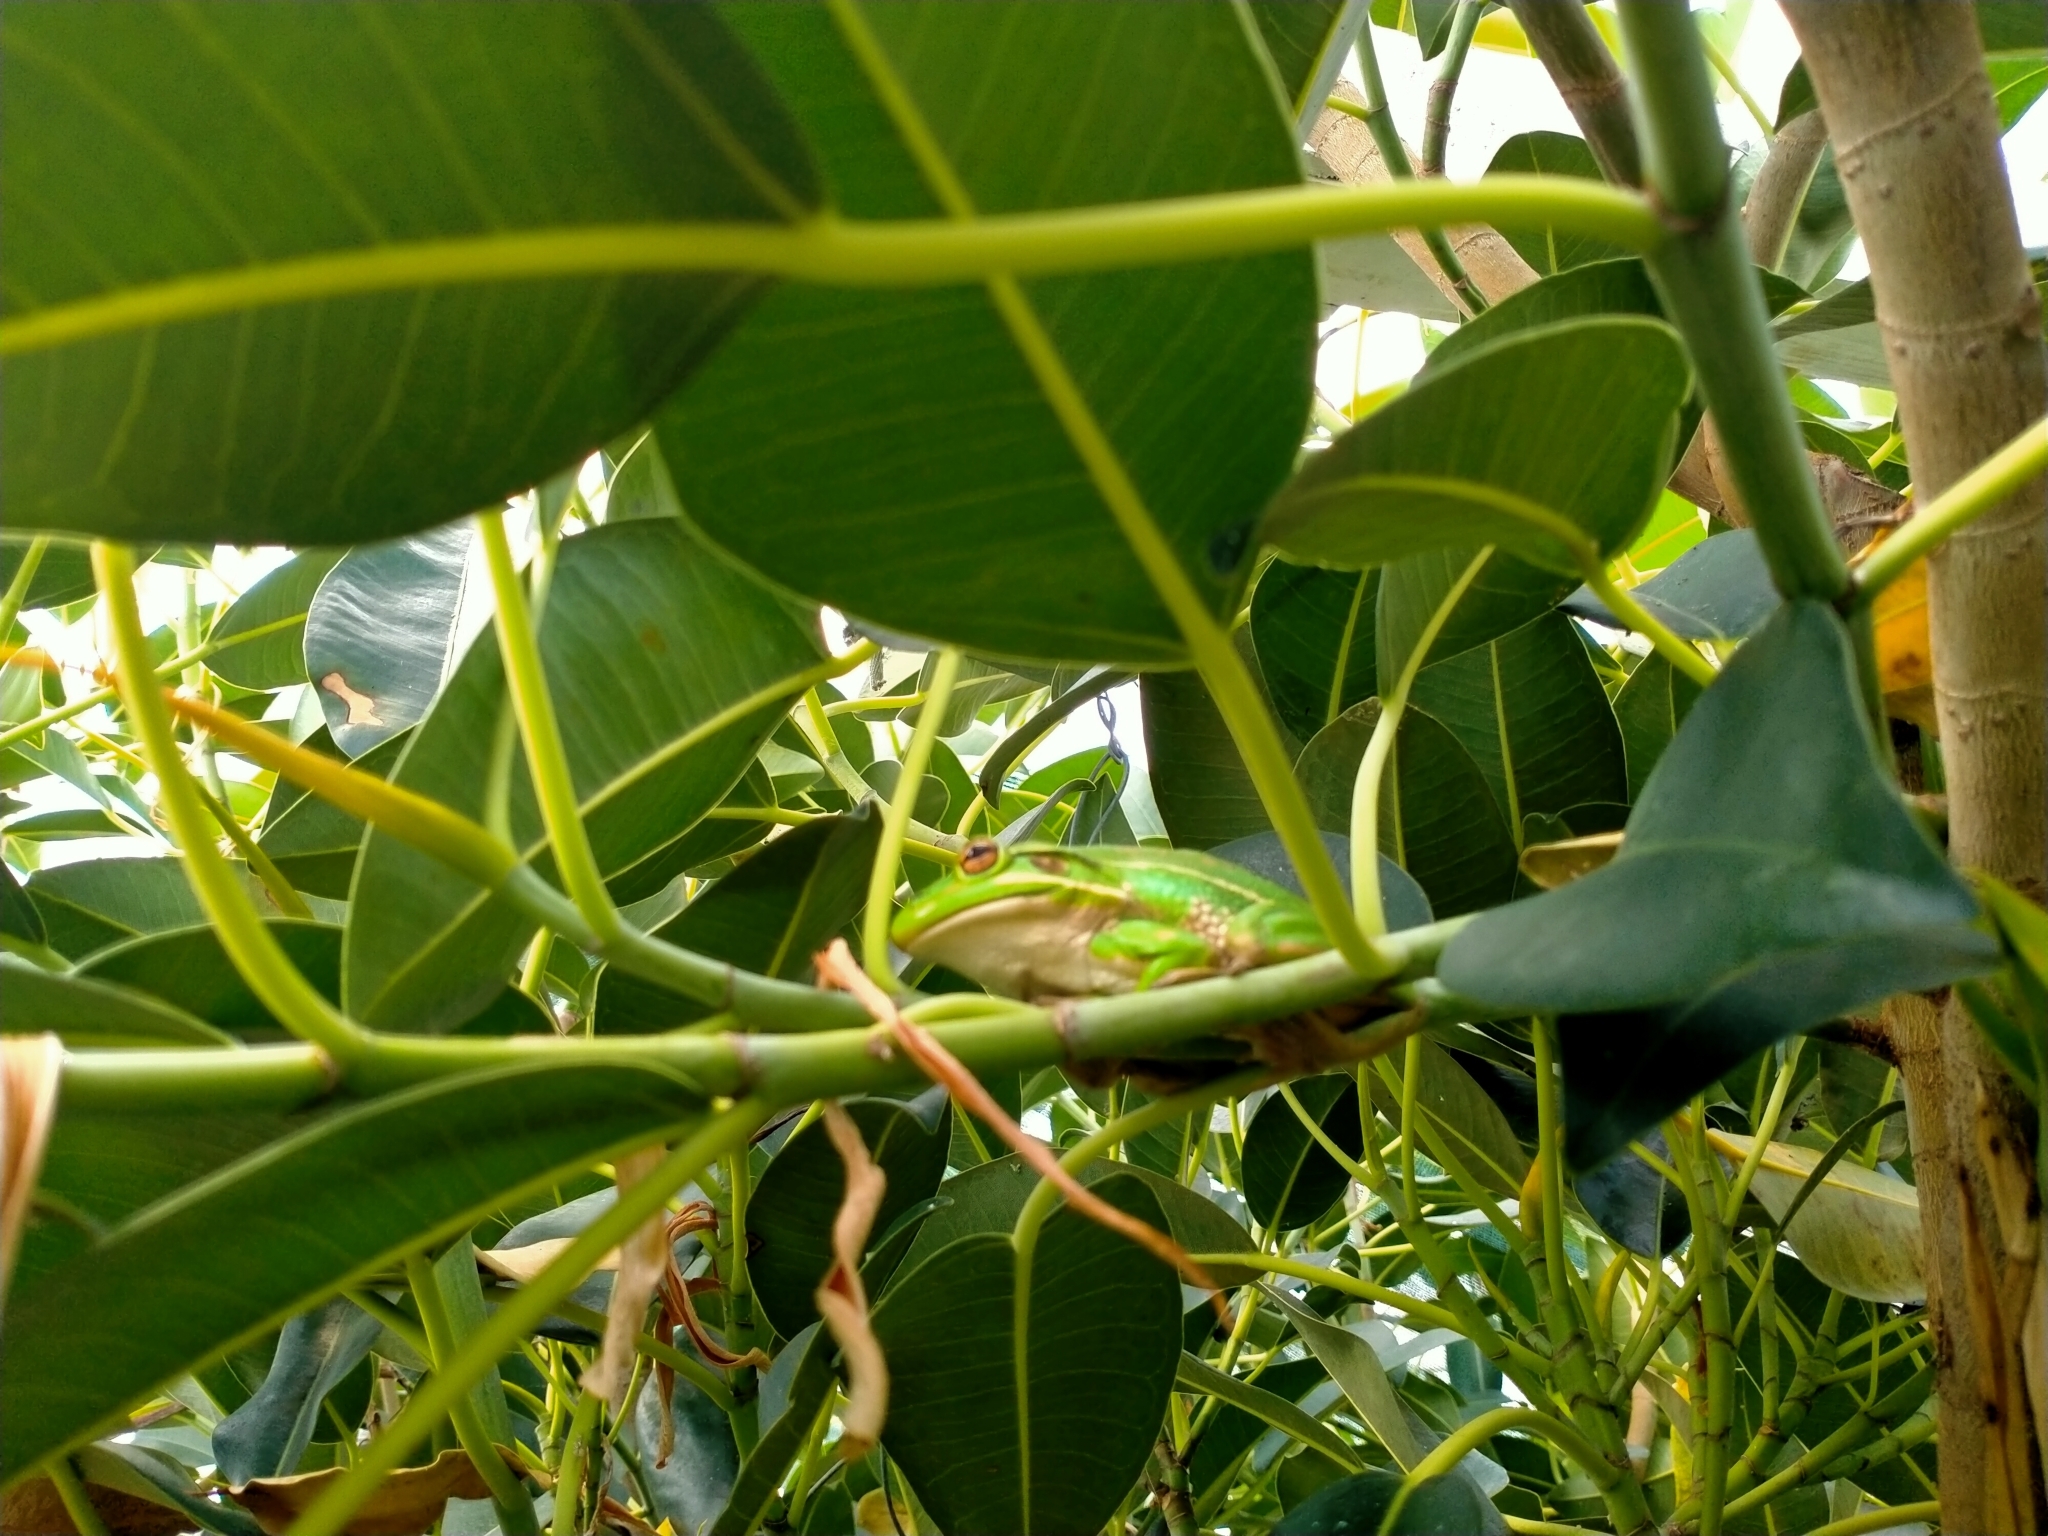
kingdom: Animalia
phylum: Chordata
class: Amphibia
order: Anura
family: Pelodryadidae
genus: Ranoidea
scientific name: Ranoidea aurea
